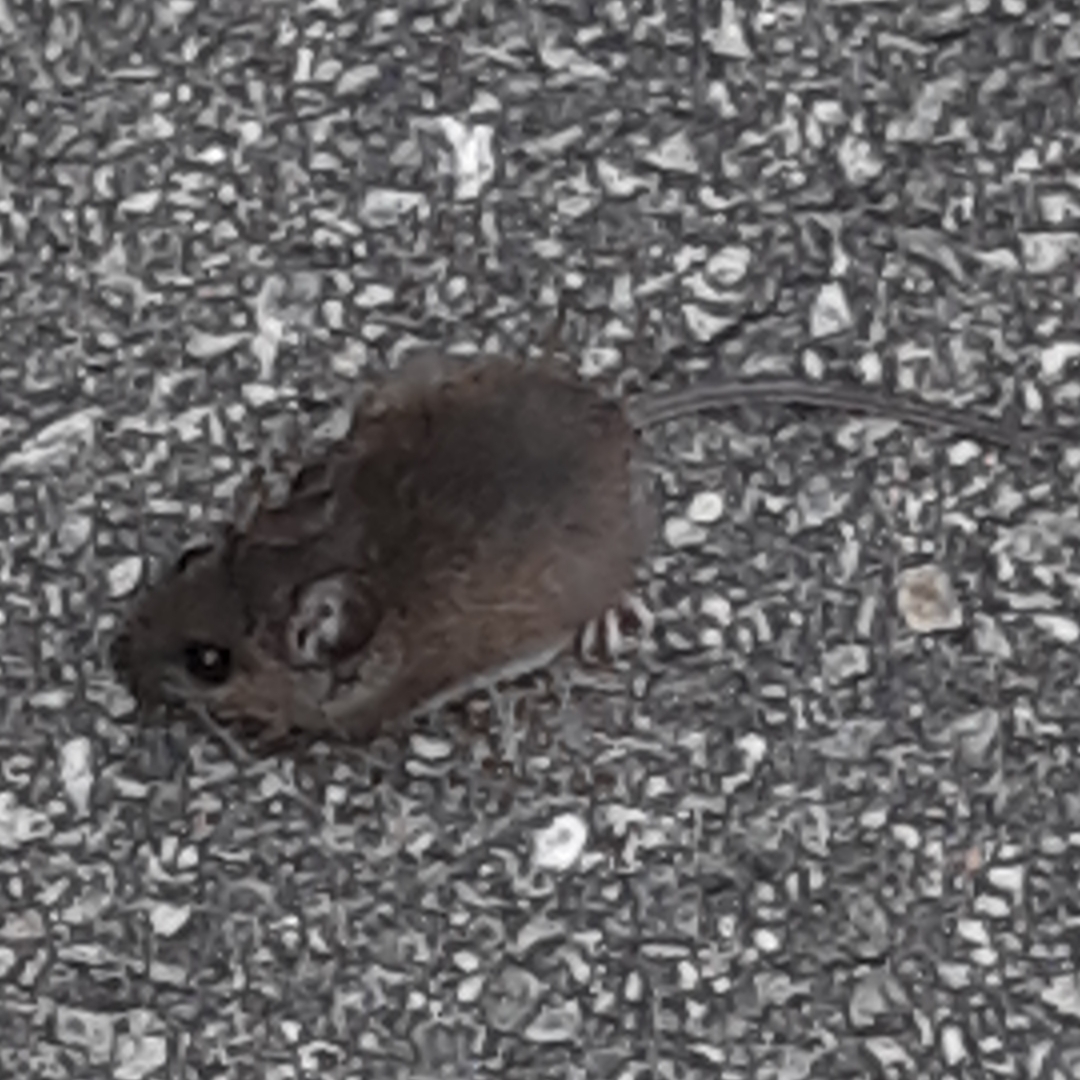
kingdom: Animalia
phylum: Chordata
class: Mammalia
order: Rodentia
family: Cricetidae
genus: Peromyscus
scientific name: Peromyscus leucopus
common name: White-footed deermouse
